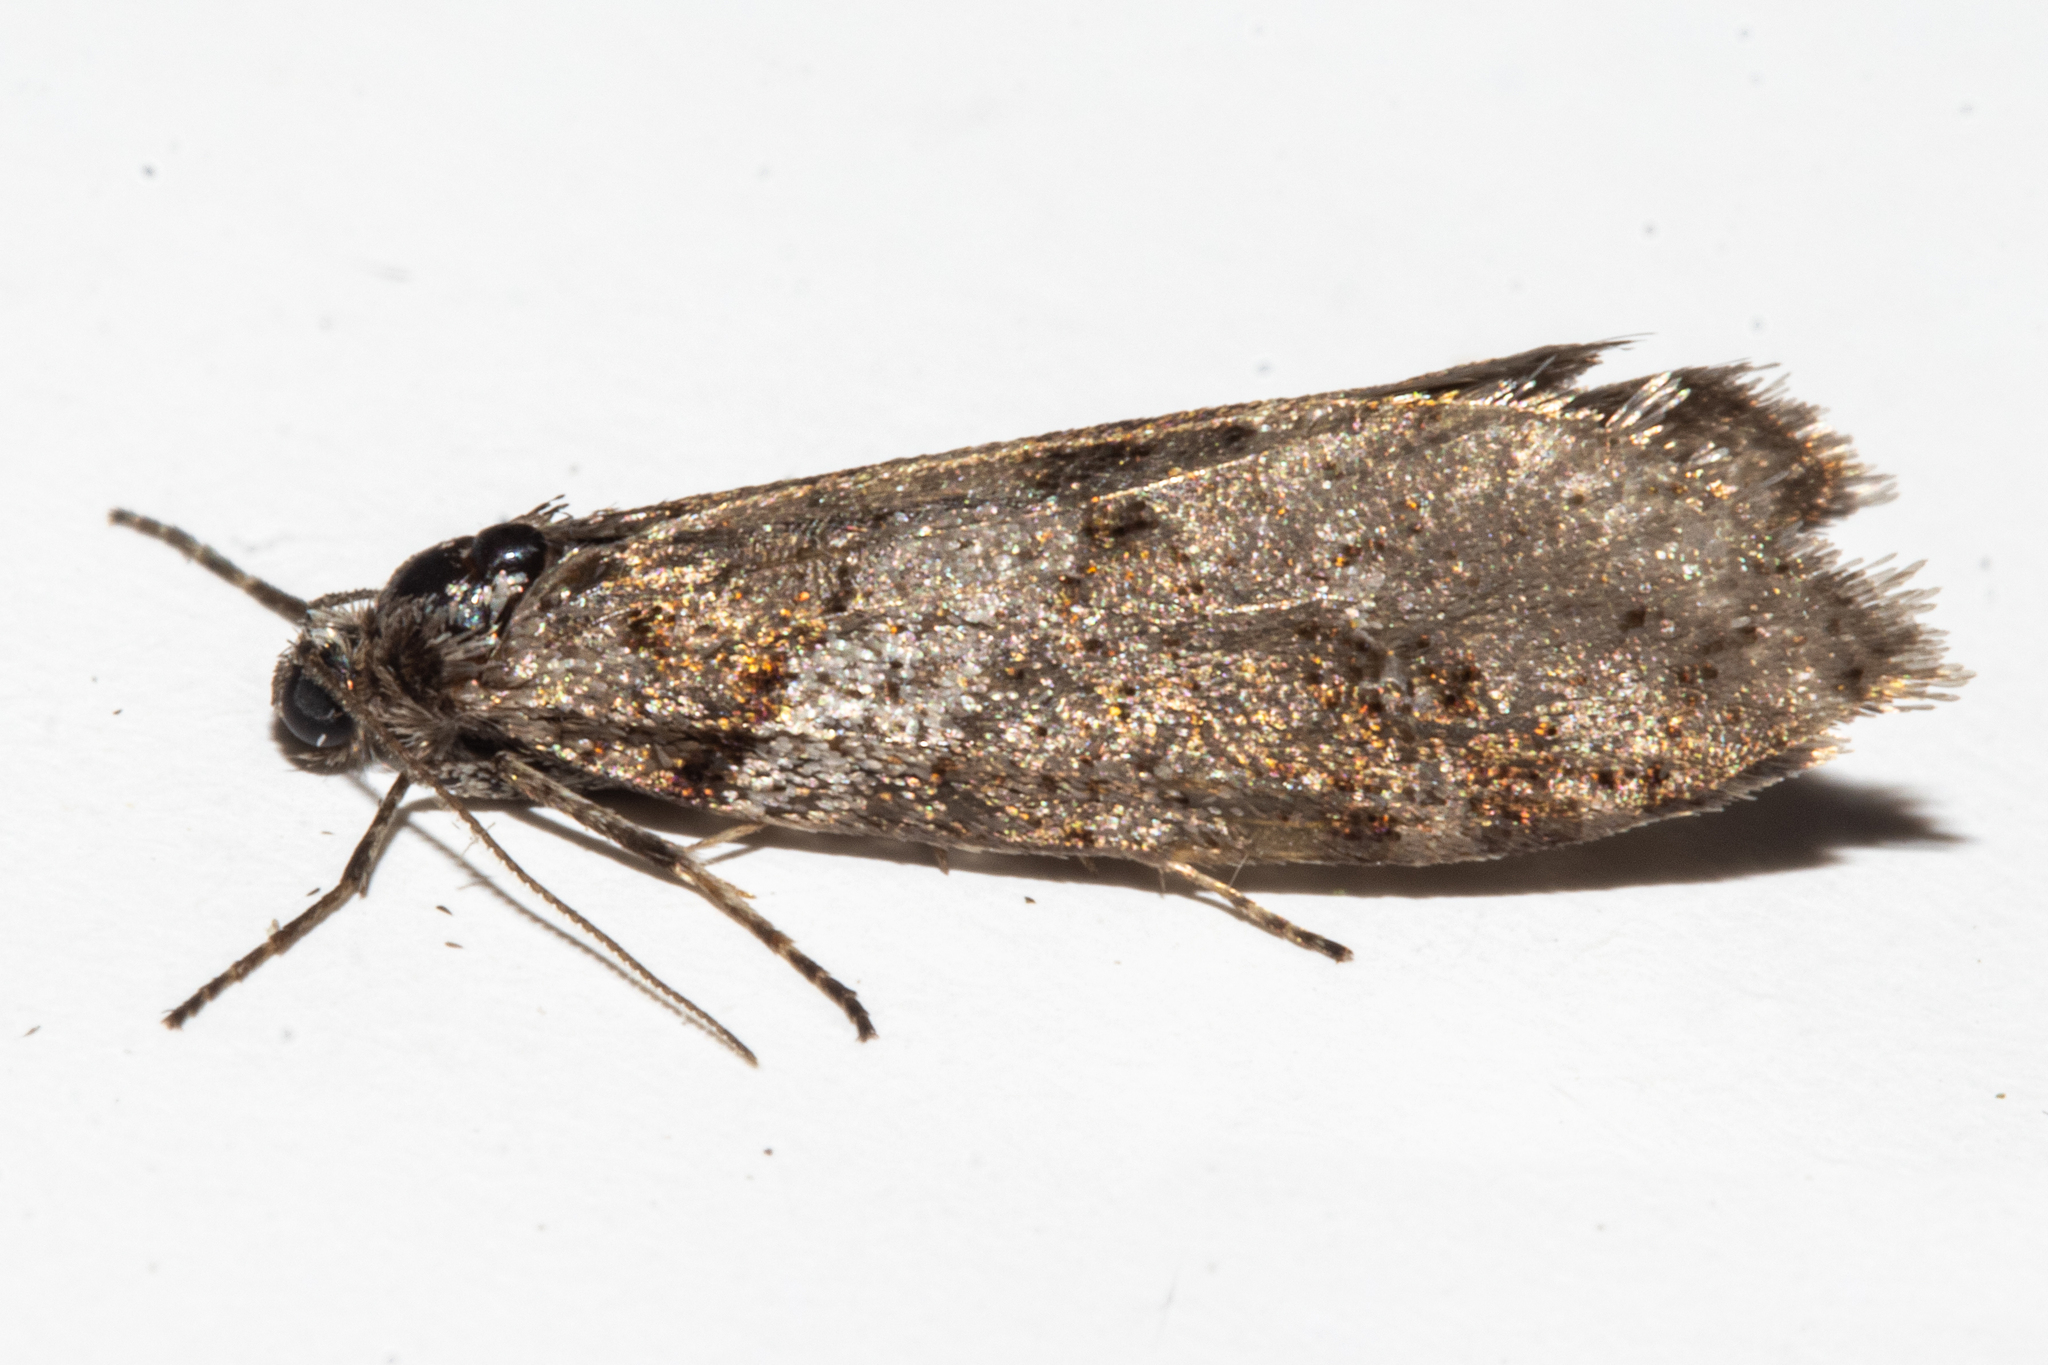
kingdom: Animalia
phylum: Arthropoda
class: Insecta
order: Lepidoptera
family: Psychidae
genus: Lepidoscia
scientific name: Lepidoscia heliochares
